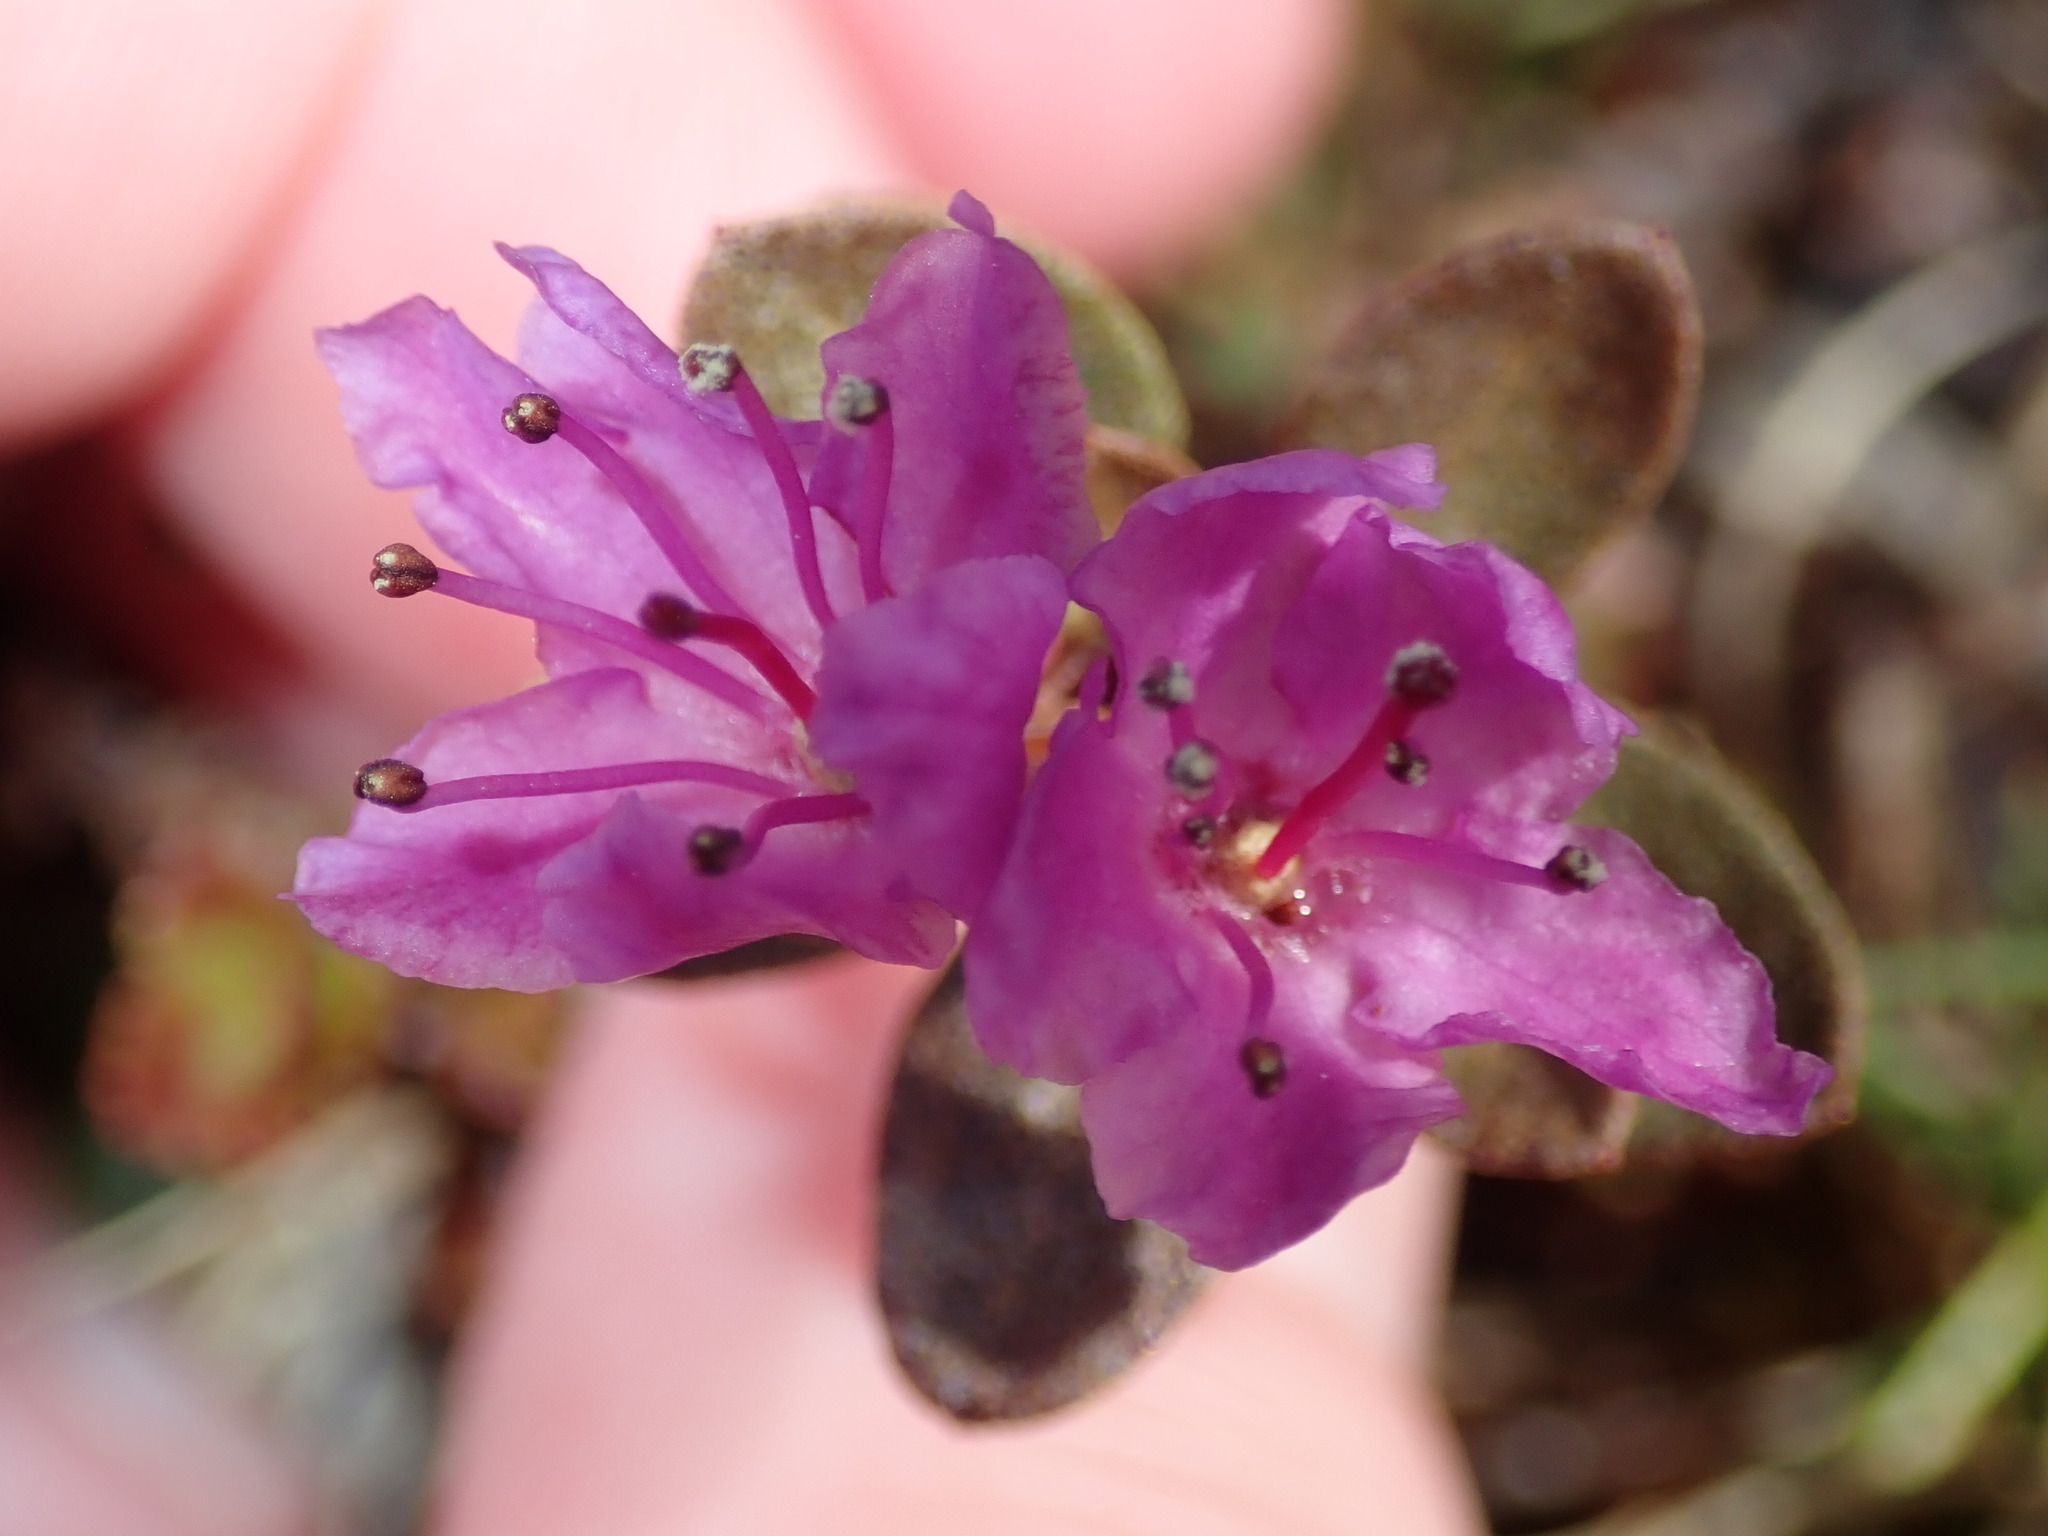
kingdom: Plantae
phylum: Tracheophyta
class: Magnoliopsida
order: Ericales
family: Ericaceae
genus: Rhododendron
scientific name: Rhododendron lapponicum
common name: Lapland rhododendron
